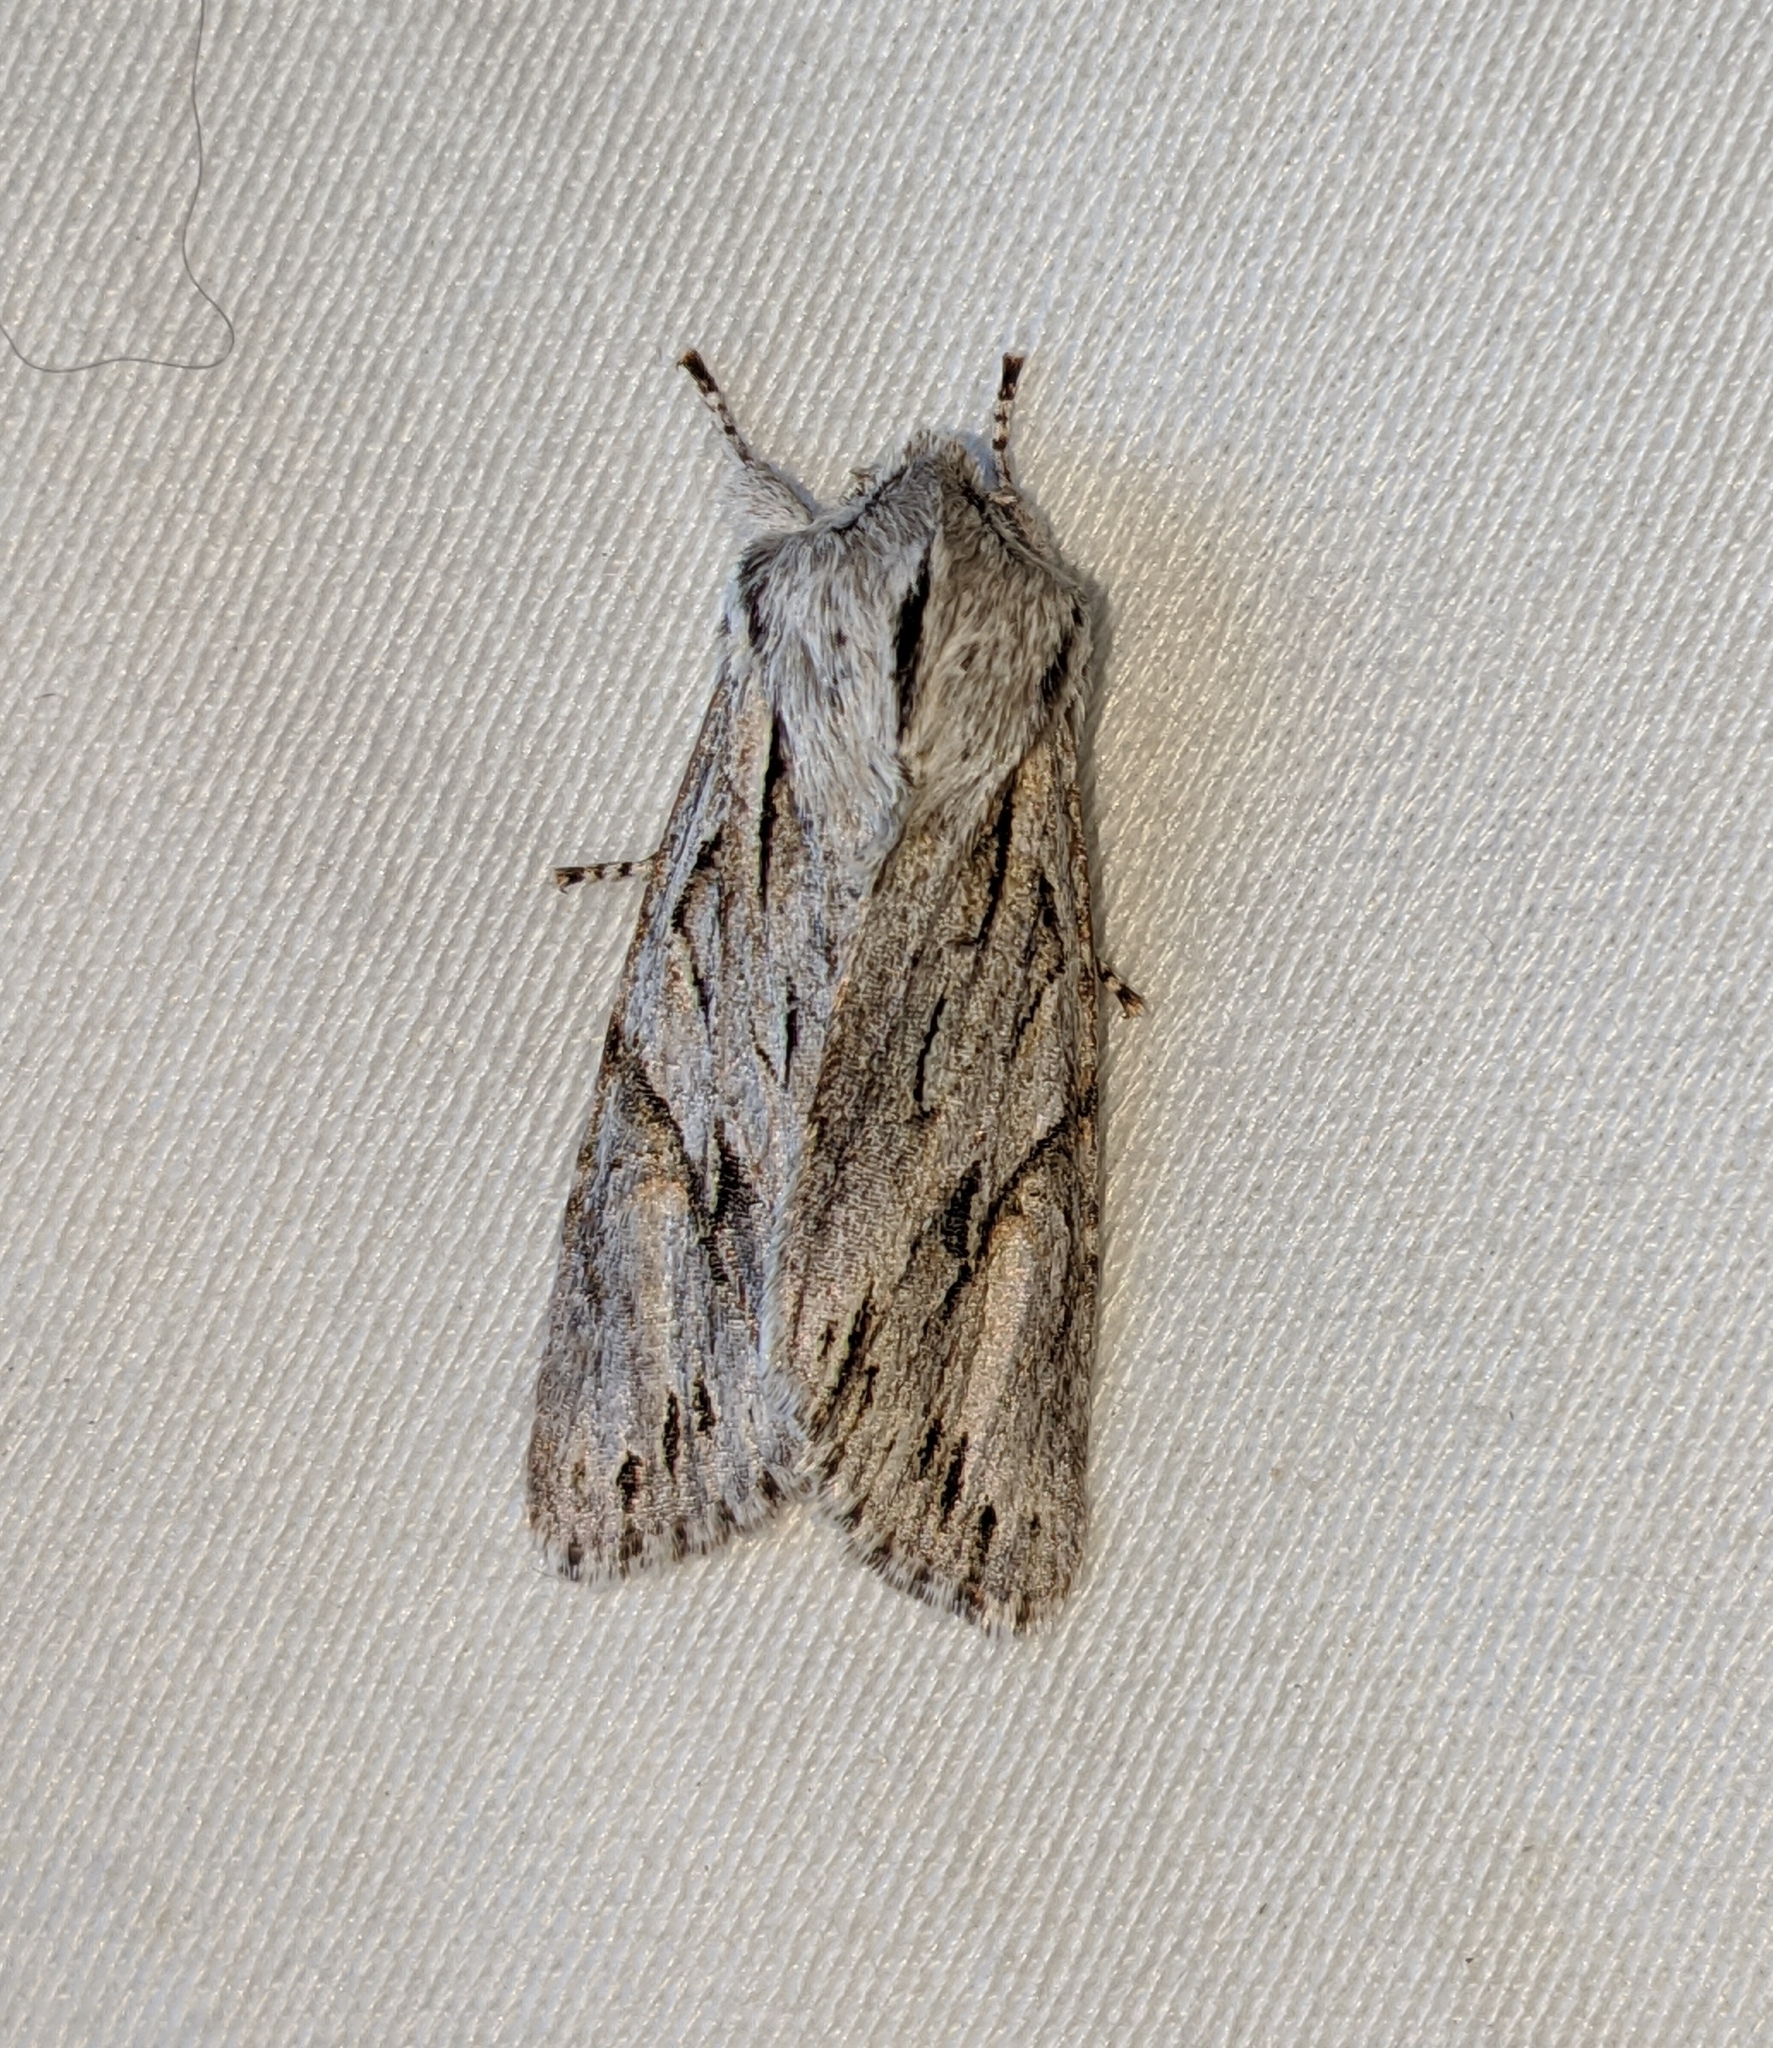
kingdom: Animalia
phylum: Arthropoda
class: Insecta
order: Lepidoptera
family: Noctuidae
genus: Egira
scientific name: Egira crucialis
